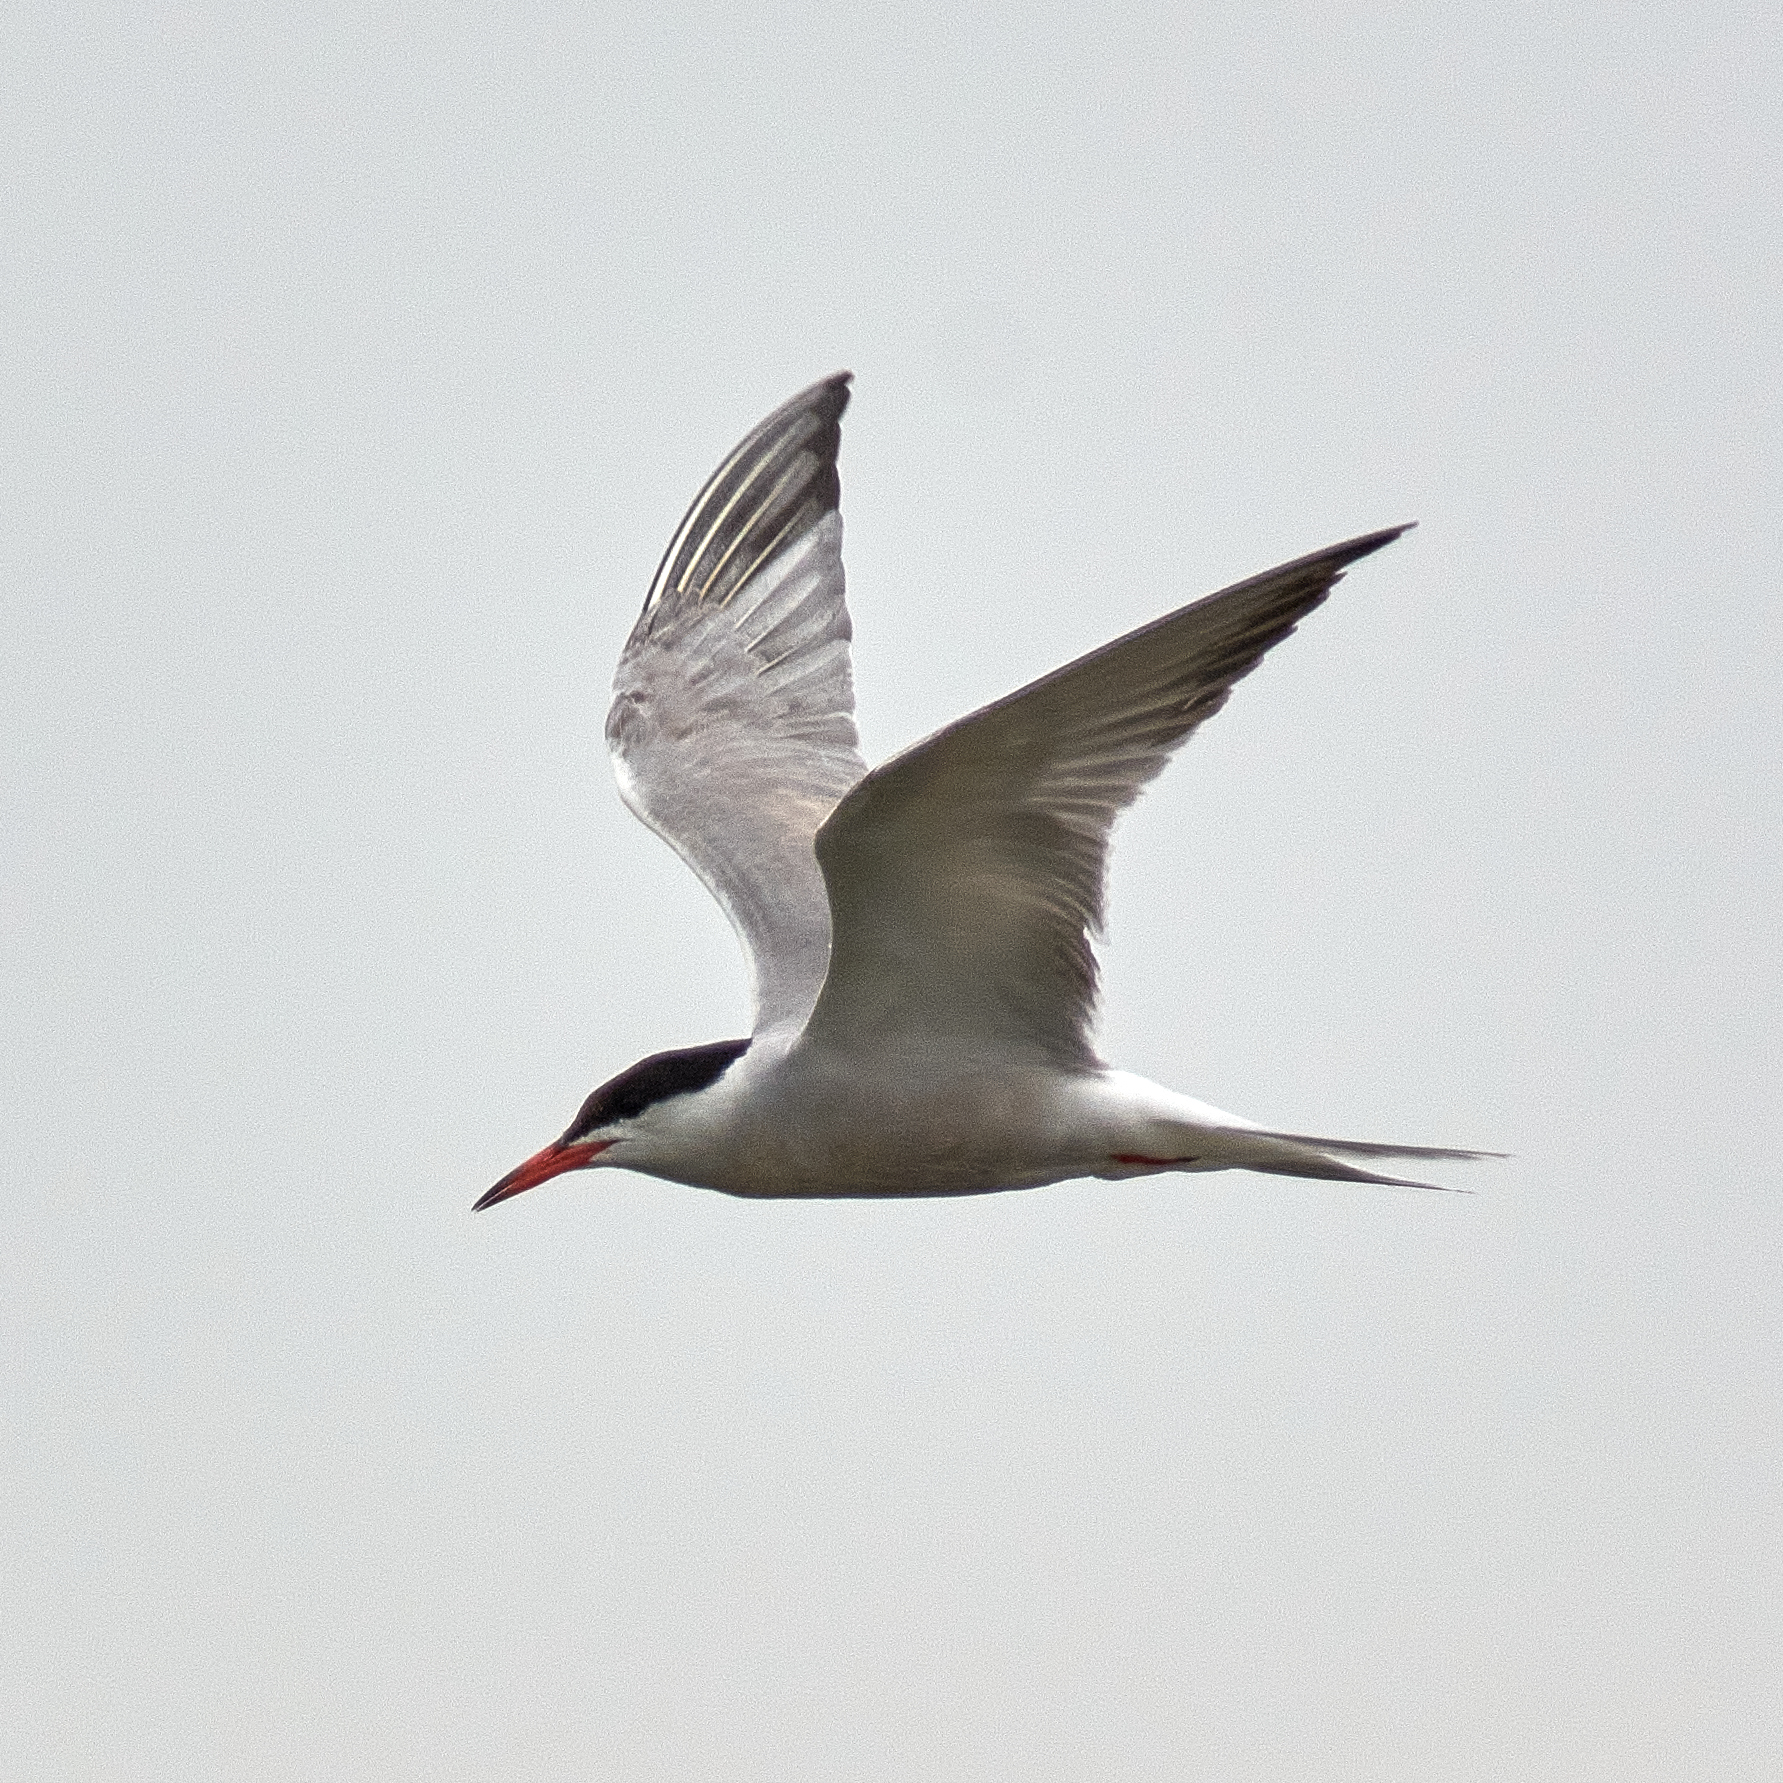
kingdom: Animalia
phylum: Chordata
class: Aves
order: Charadriiformes
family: Laridae
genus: Sterna
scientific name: Sterna hirundo
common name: Common tern
